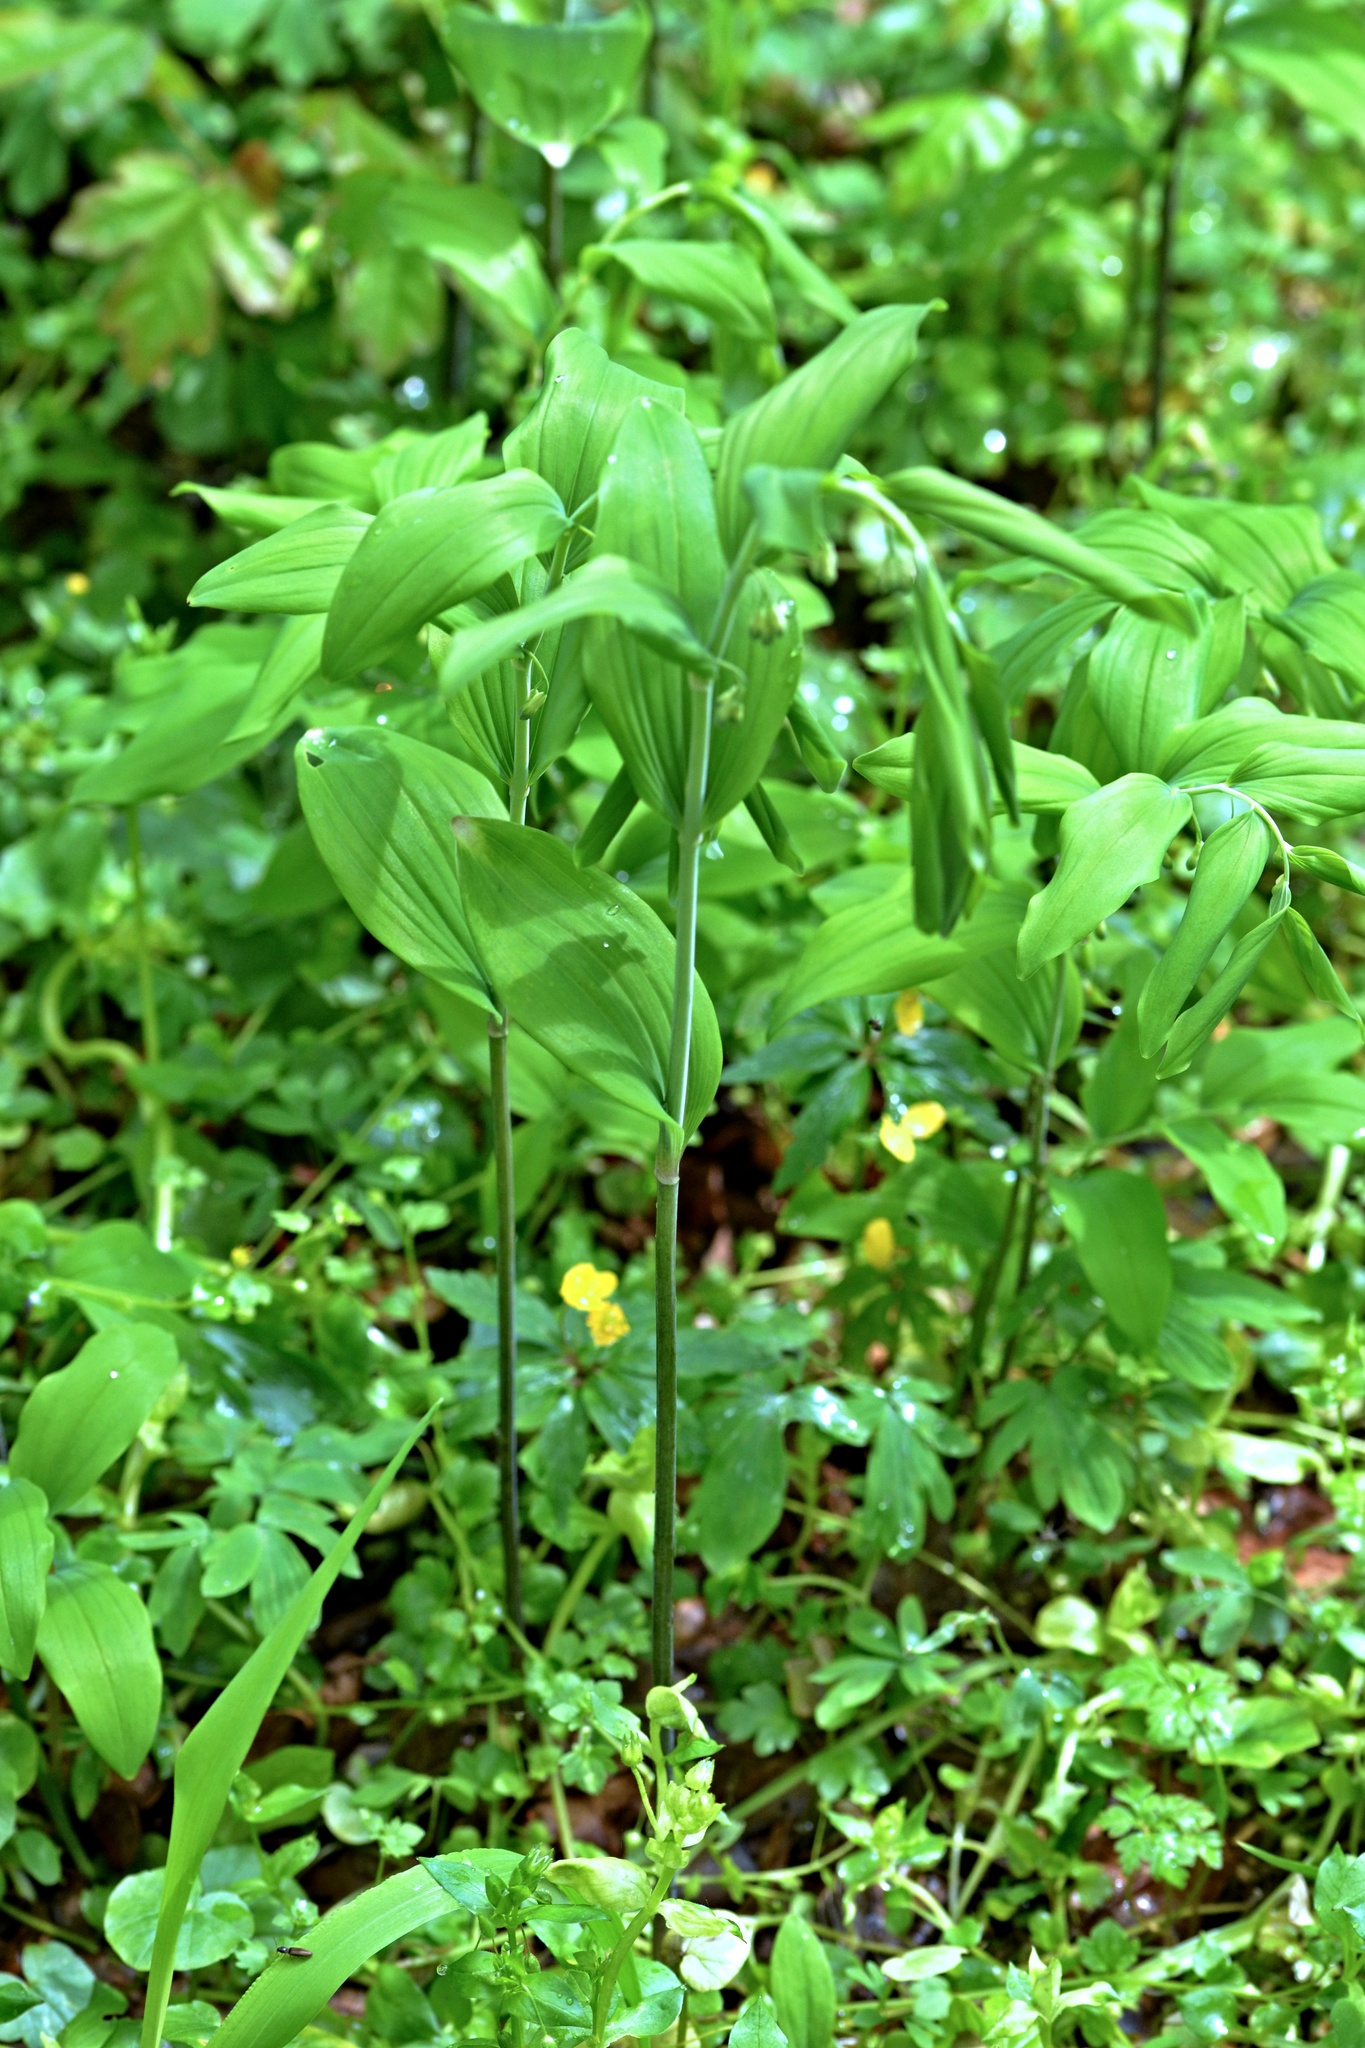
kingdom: Plantae
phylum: Tracheophyta
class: Liliopsida
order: Asparagales
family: Asparagaceae
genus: Polygonatum
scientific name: Polygonatum multiflorum
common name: Solomon's-seal
